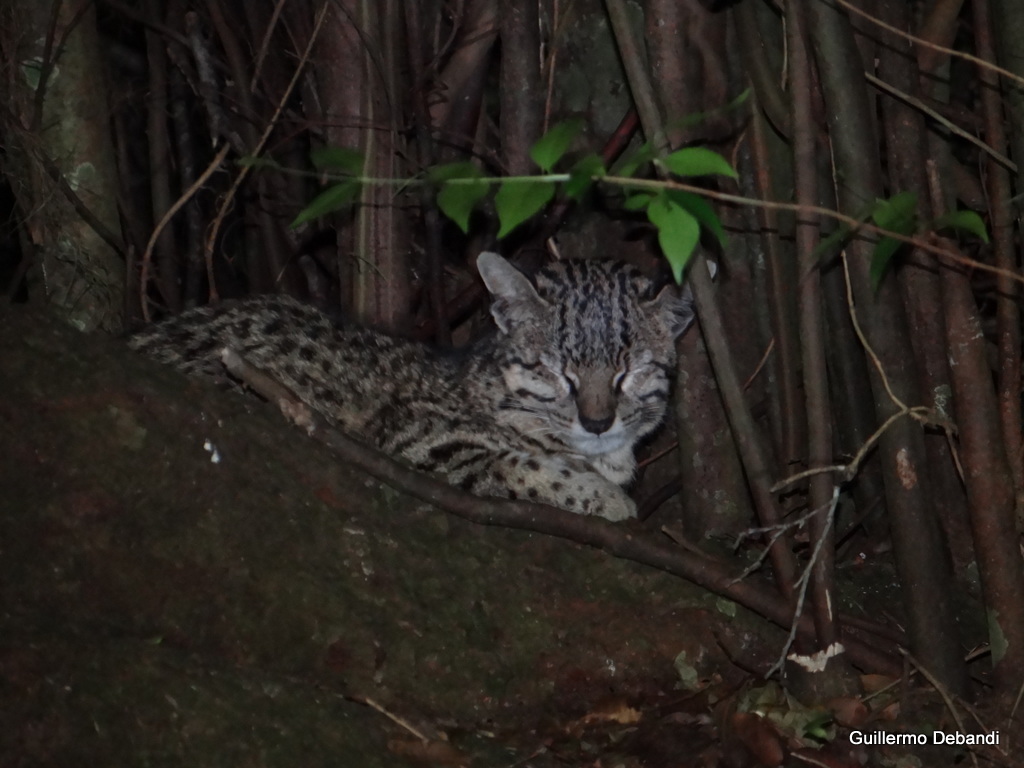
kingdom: Animalia
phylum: Chordata
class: Mammalia
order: Carnivora
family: Felidae
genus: Leopardus
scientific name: Leopardus geoffroyi
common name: Geoffroy's cat
